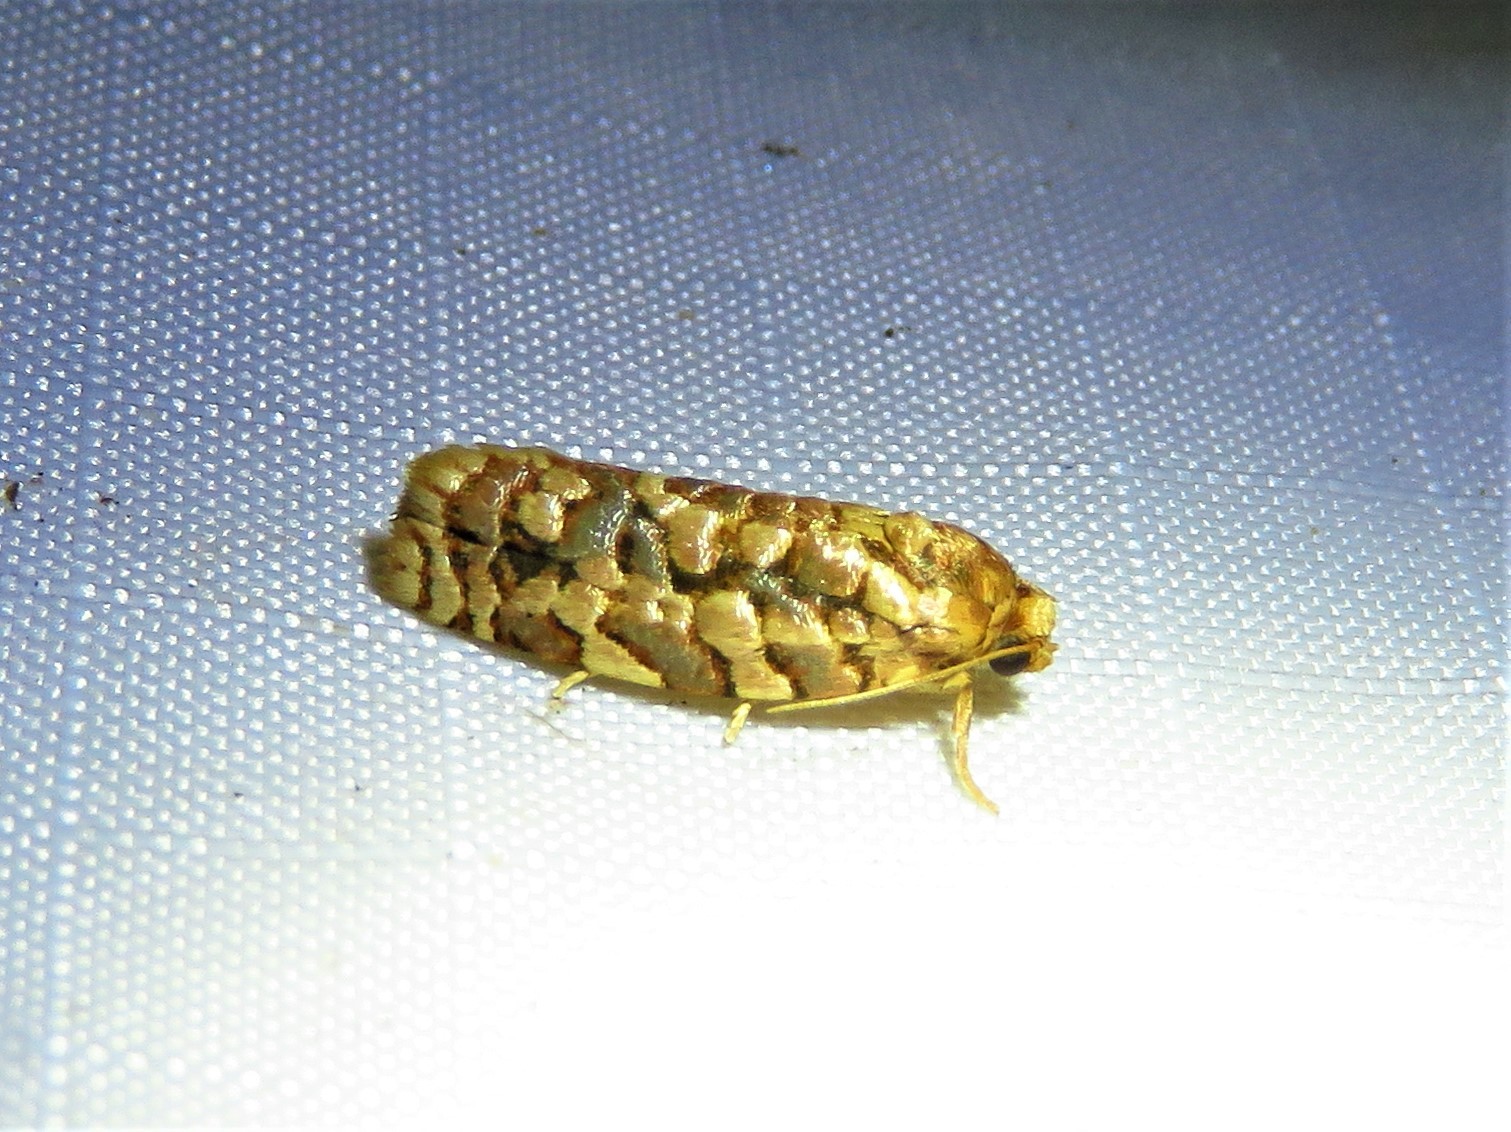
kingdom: Animalia
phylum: Arthropoda
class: Insecta
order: Lepidoptera
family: Tortricidae
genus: Choristoneura
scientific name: Choristoneura houstonana
